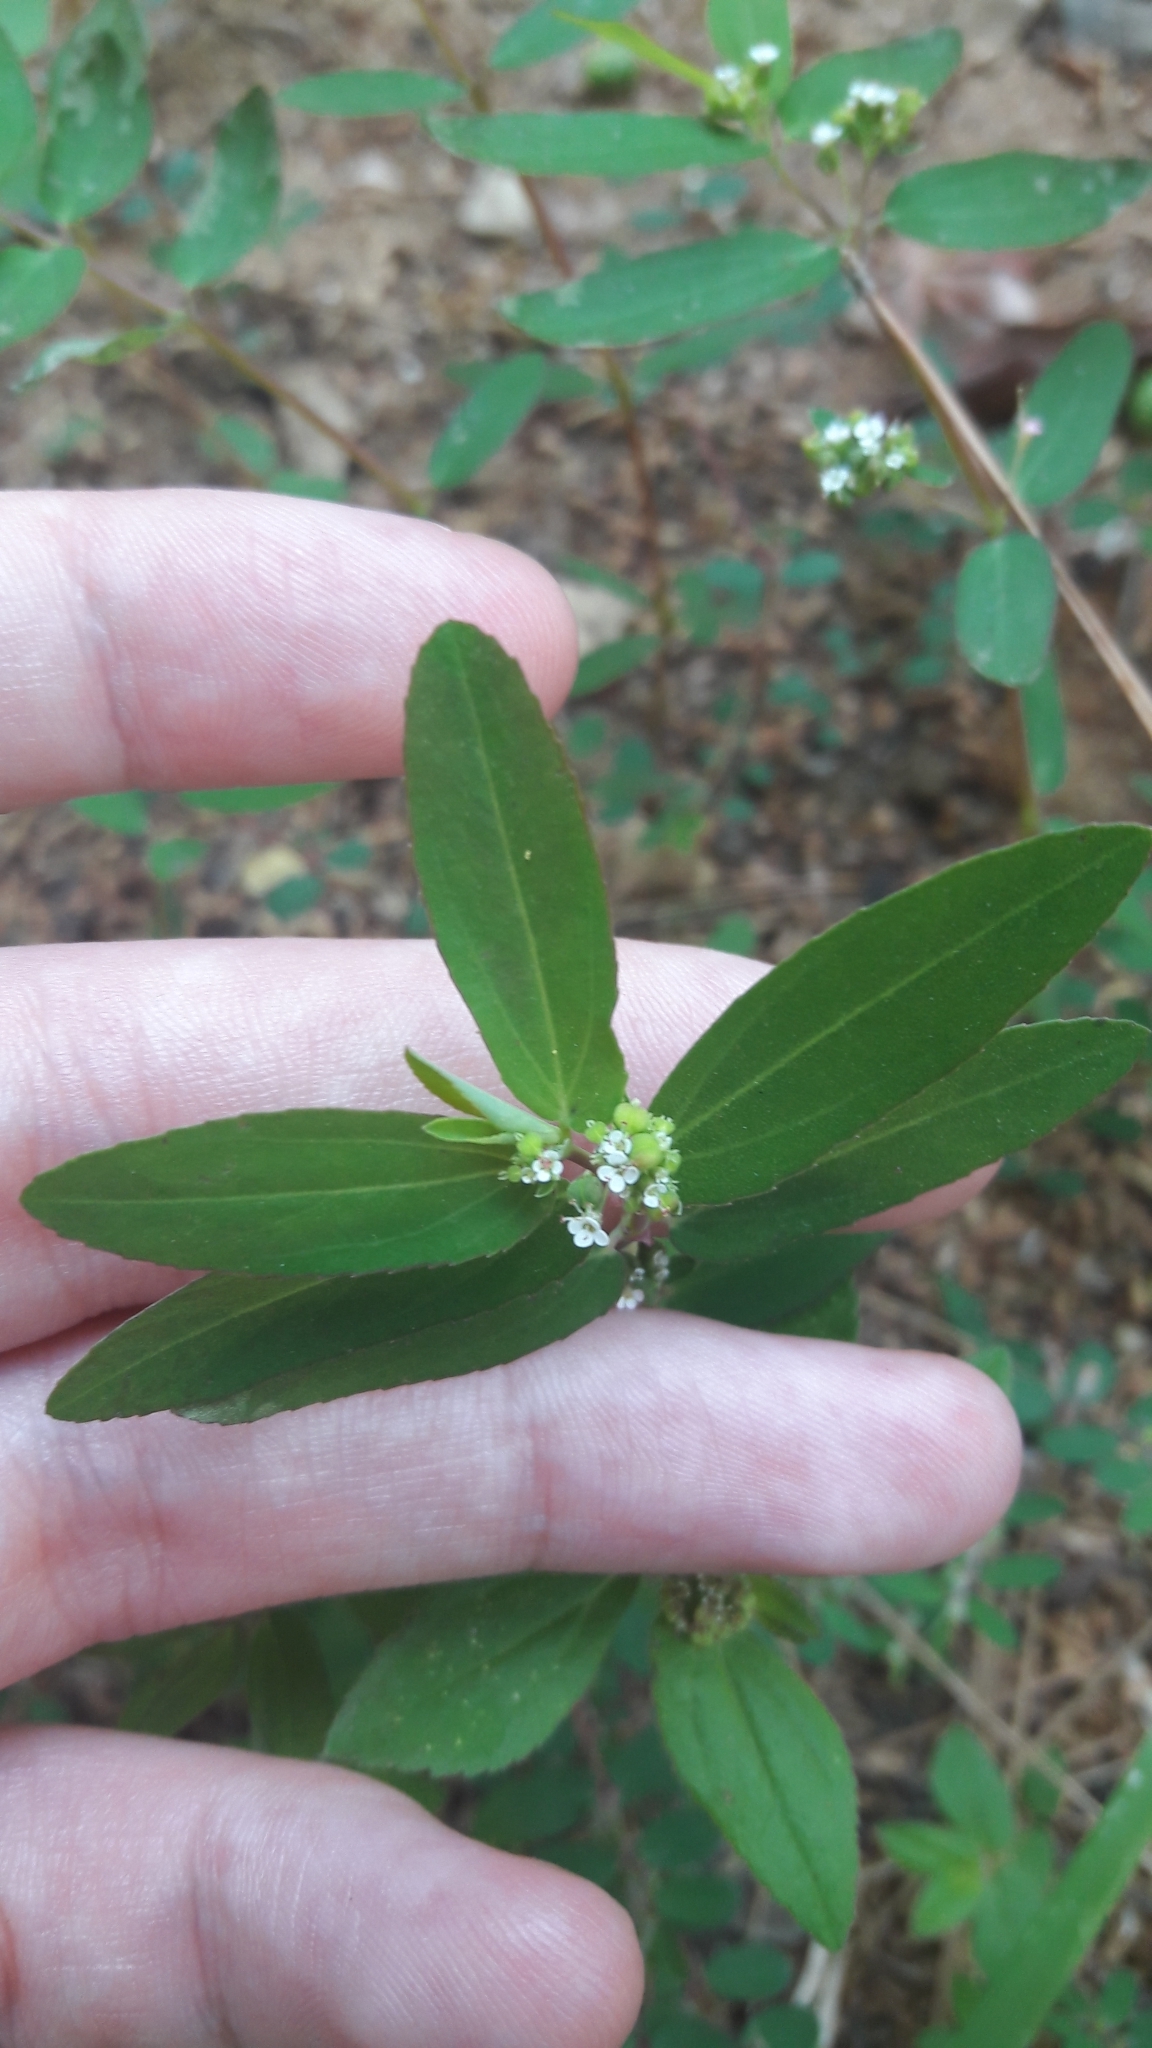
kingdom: Plantae
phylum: Tracheophyta
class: Magnoliopsida
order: Malpighiales
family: Euphorbiaceae
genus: Euphorbia
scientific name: Euphorbia hypericifolia
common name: Graceful sandmat
